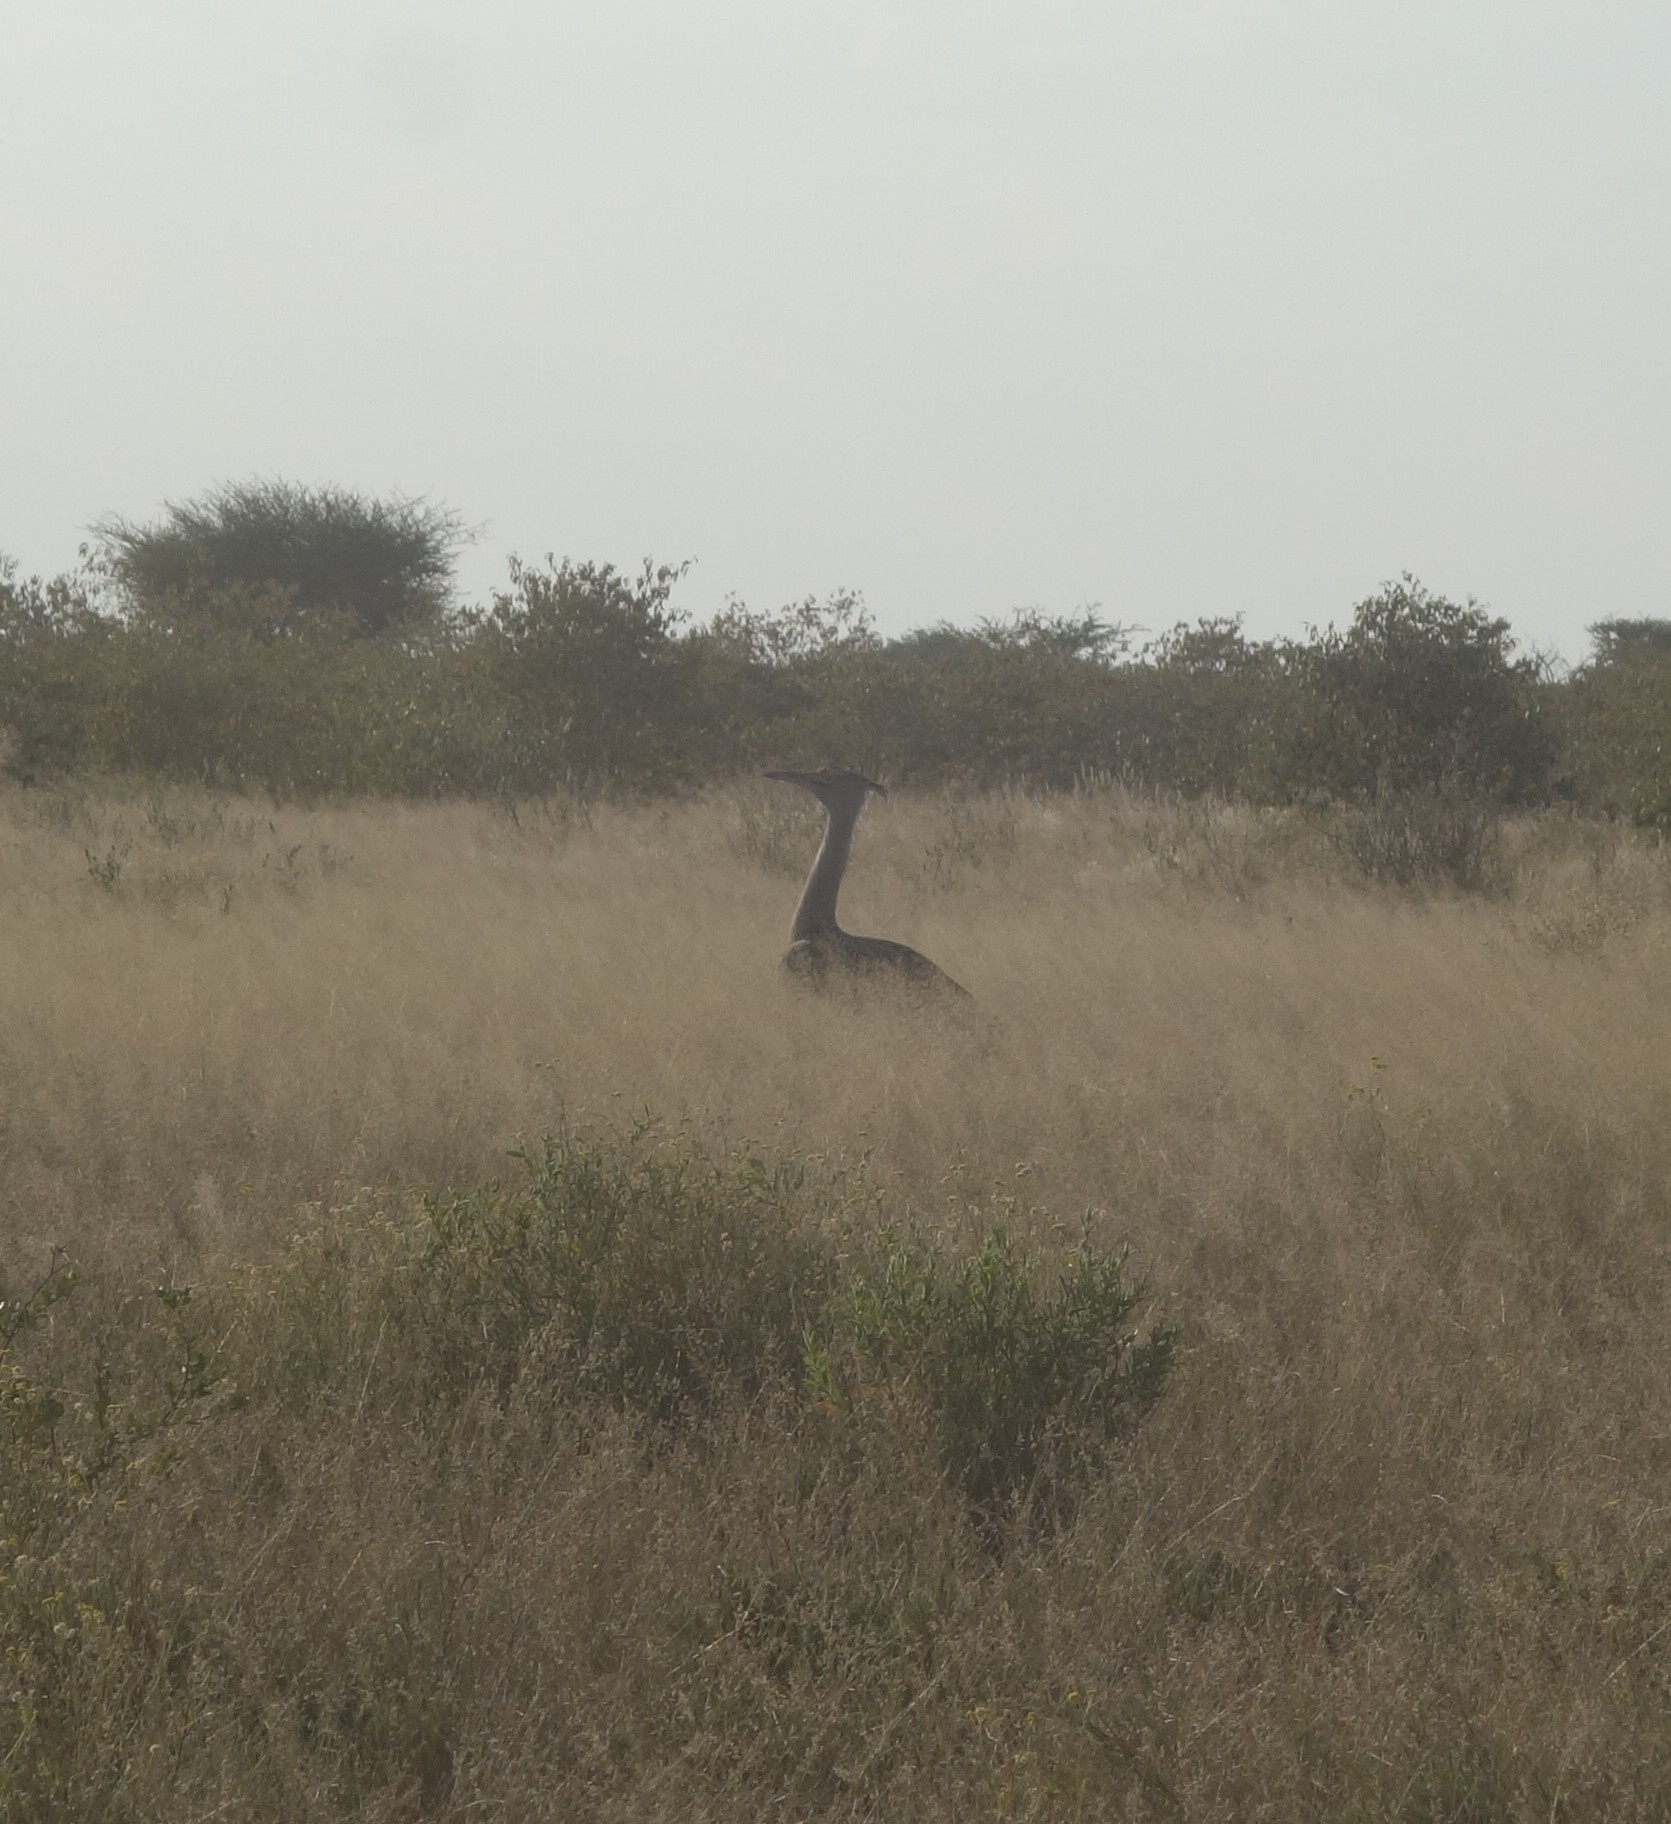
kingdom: Animalia
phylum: Chordata
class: Aves
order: Otidiformes
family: Otididae
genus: Ardeotis
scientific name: Ardeotis kori
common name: Kori bustard
